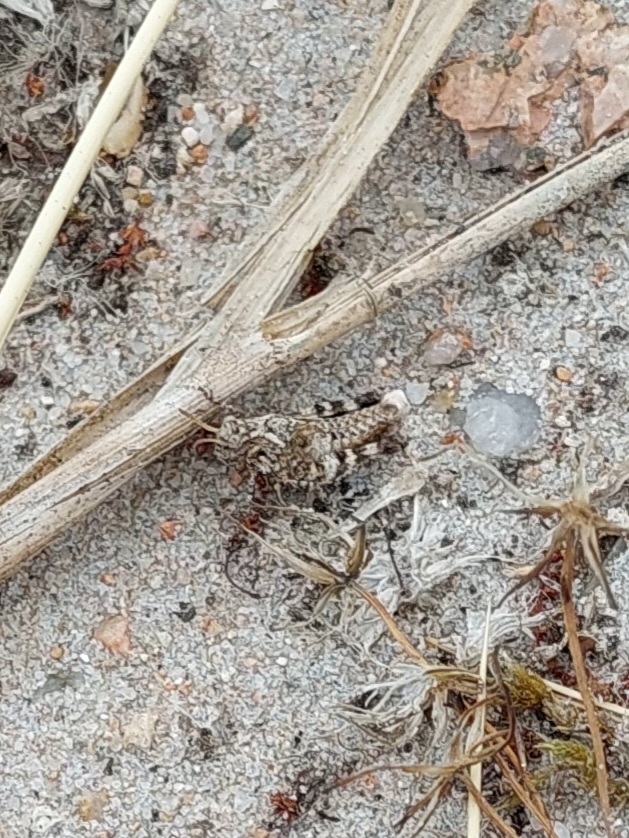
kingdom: Animalia
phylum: Arthropoda
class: Insecta
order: Orthoptera
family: Acrididae
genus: Oedipoda
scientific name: Oedipoda caerulescens
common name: Blue-winged grasshopper
